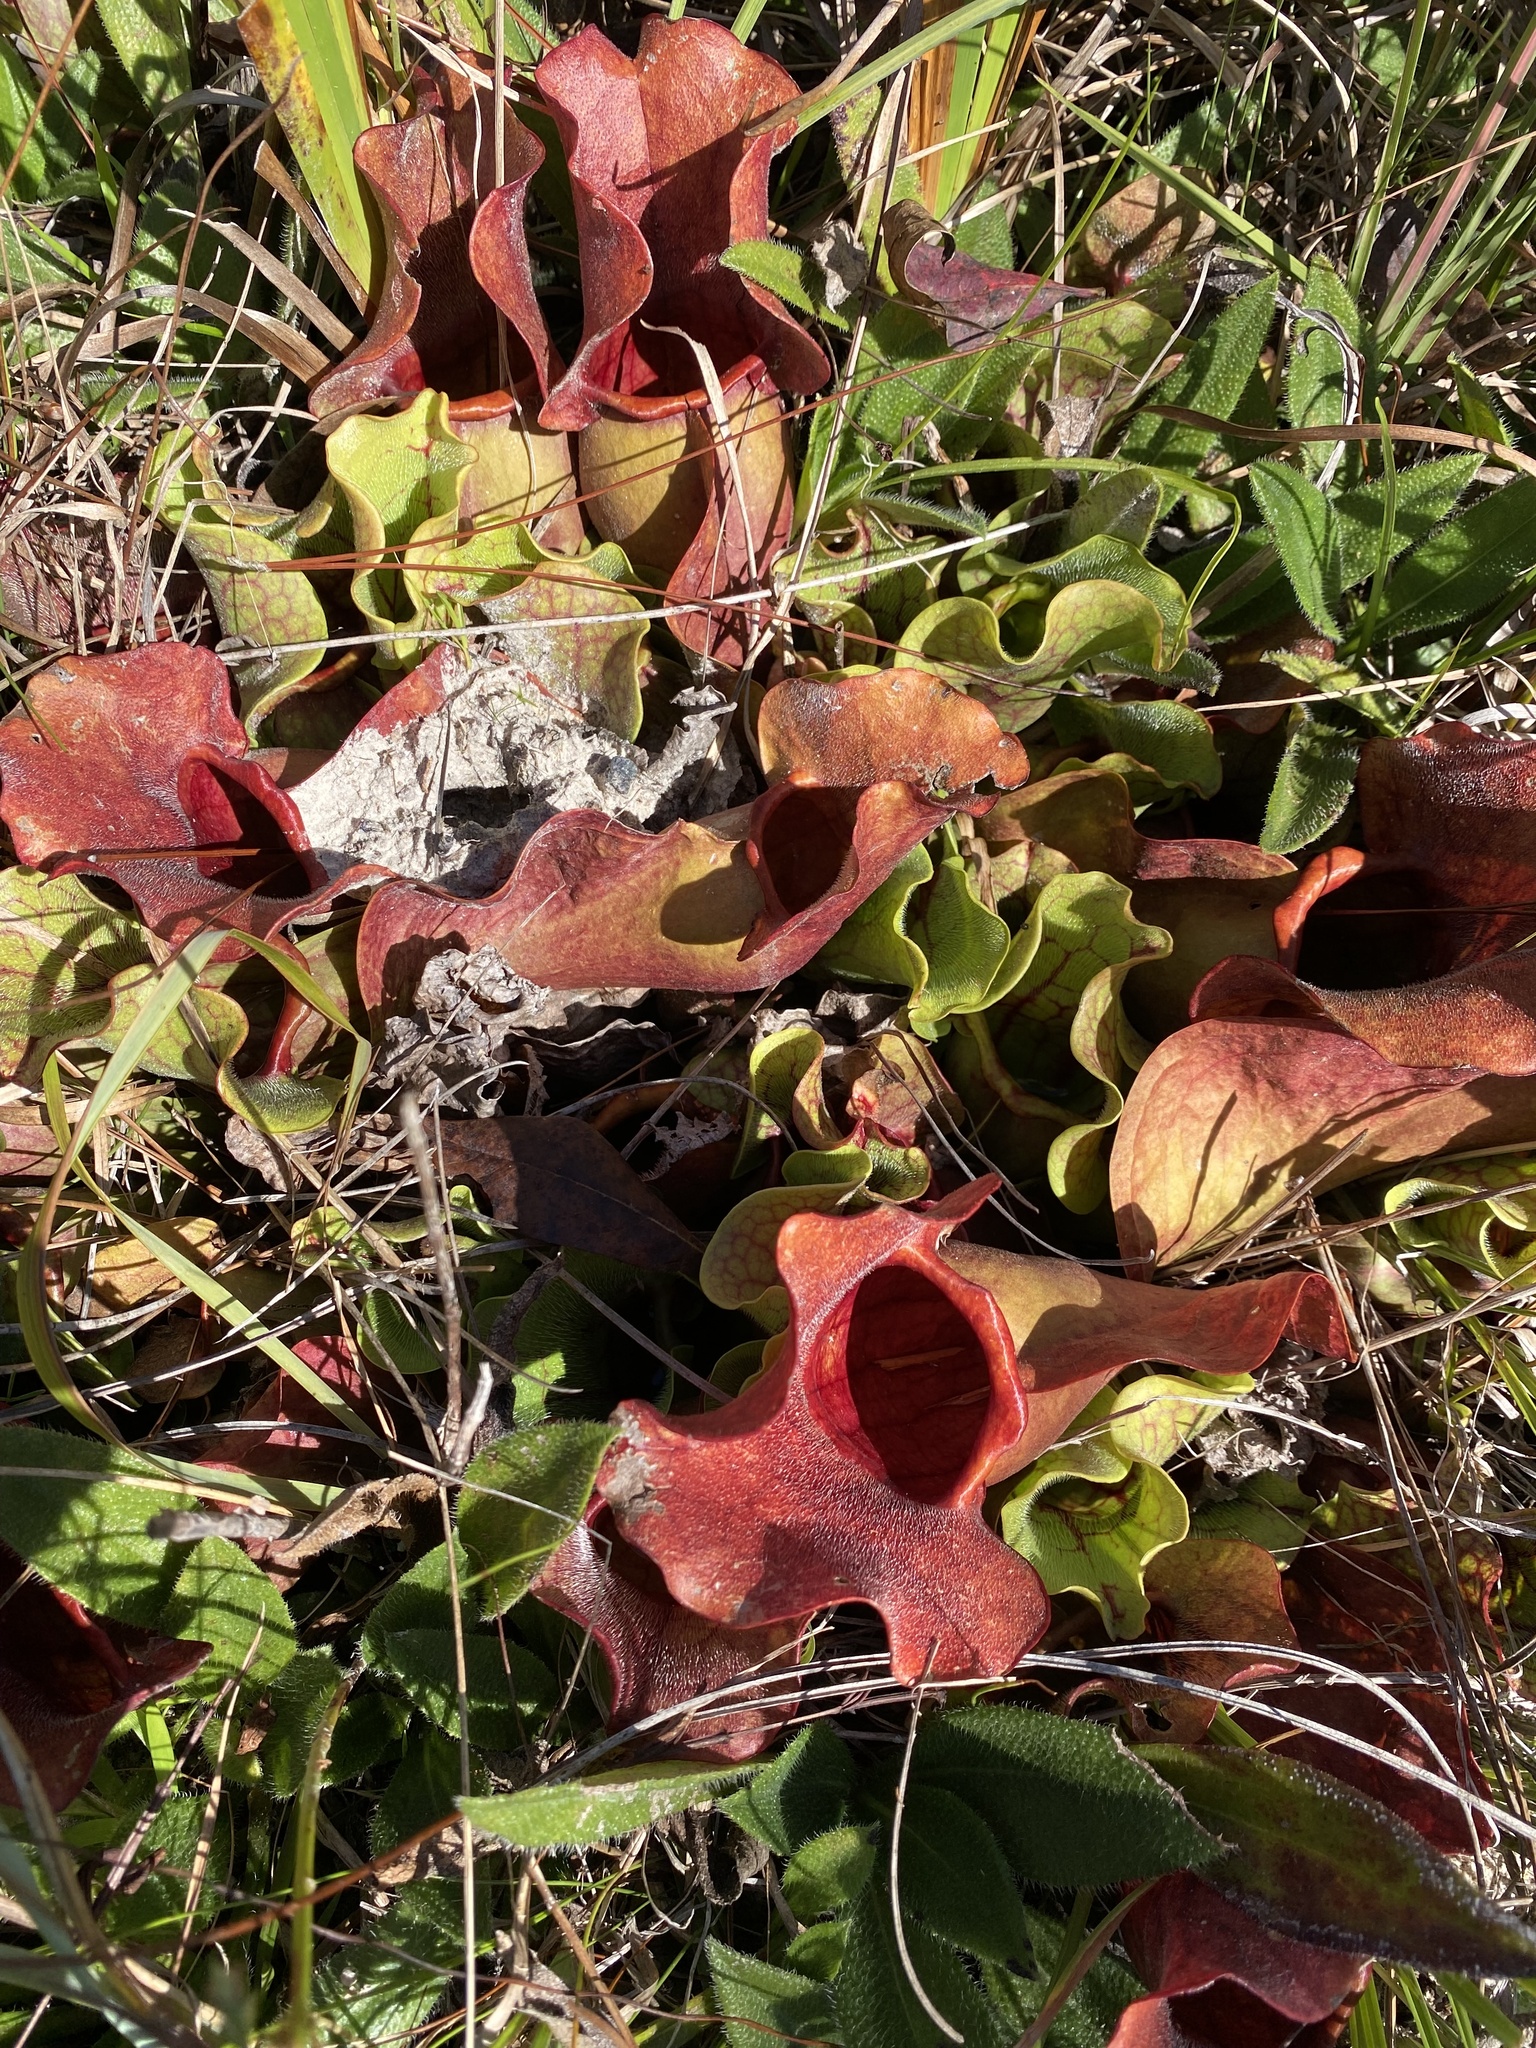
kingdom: Plantae
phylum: Tracheophyta
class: Magnoliopsida
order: Ericales
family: Sarraceniaceae
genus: Sarracenia
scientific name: Sarracenia rosea
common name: Pink pitcherplant
